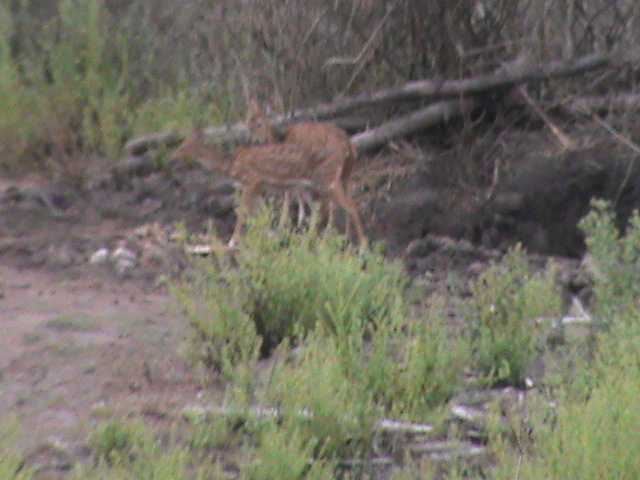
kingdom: Animalia
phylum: Chordata
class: Mammalia
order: Artiodactyla
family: Cervidae
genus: Axis
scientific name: Axis axis
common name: Chital
